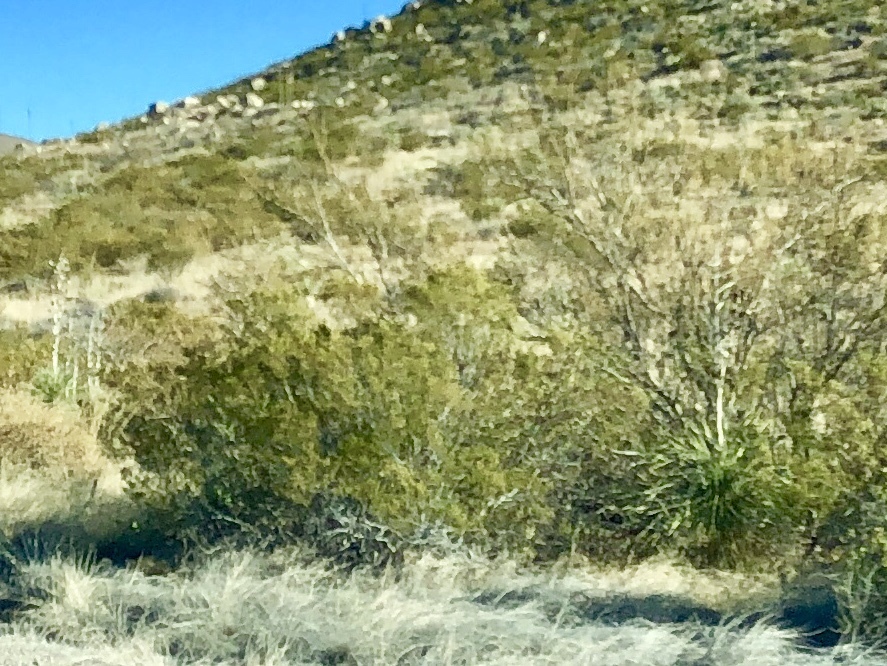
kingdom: Plantae
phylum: Tracheophyta
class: Magnoliopsida
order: Zygophyllales
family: Zygophyllaceae
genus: Larrea
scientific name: Larrea tridentata
